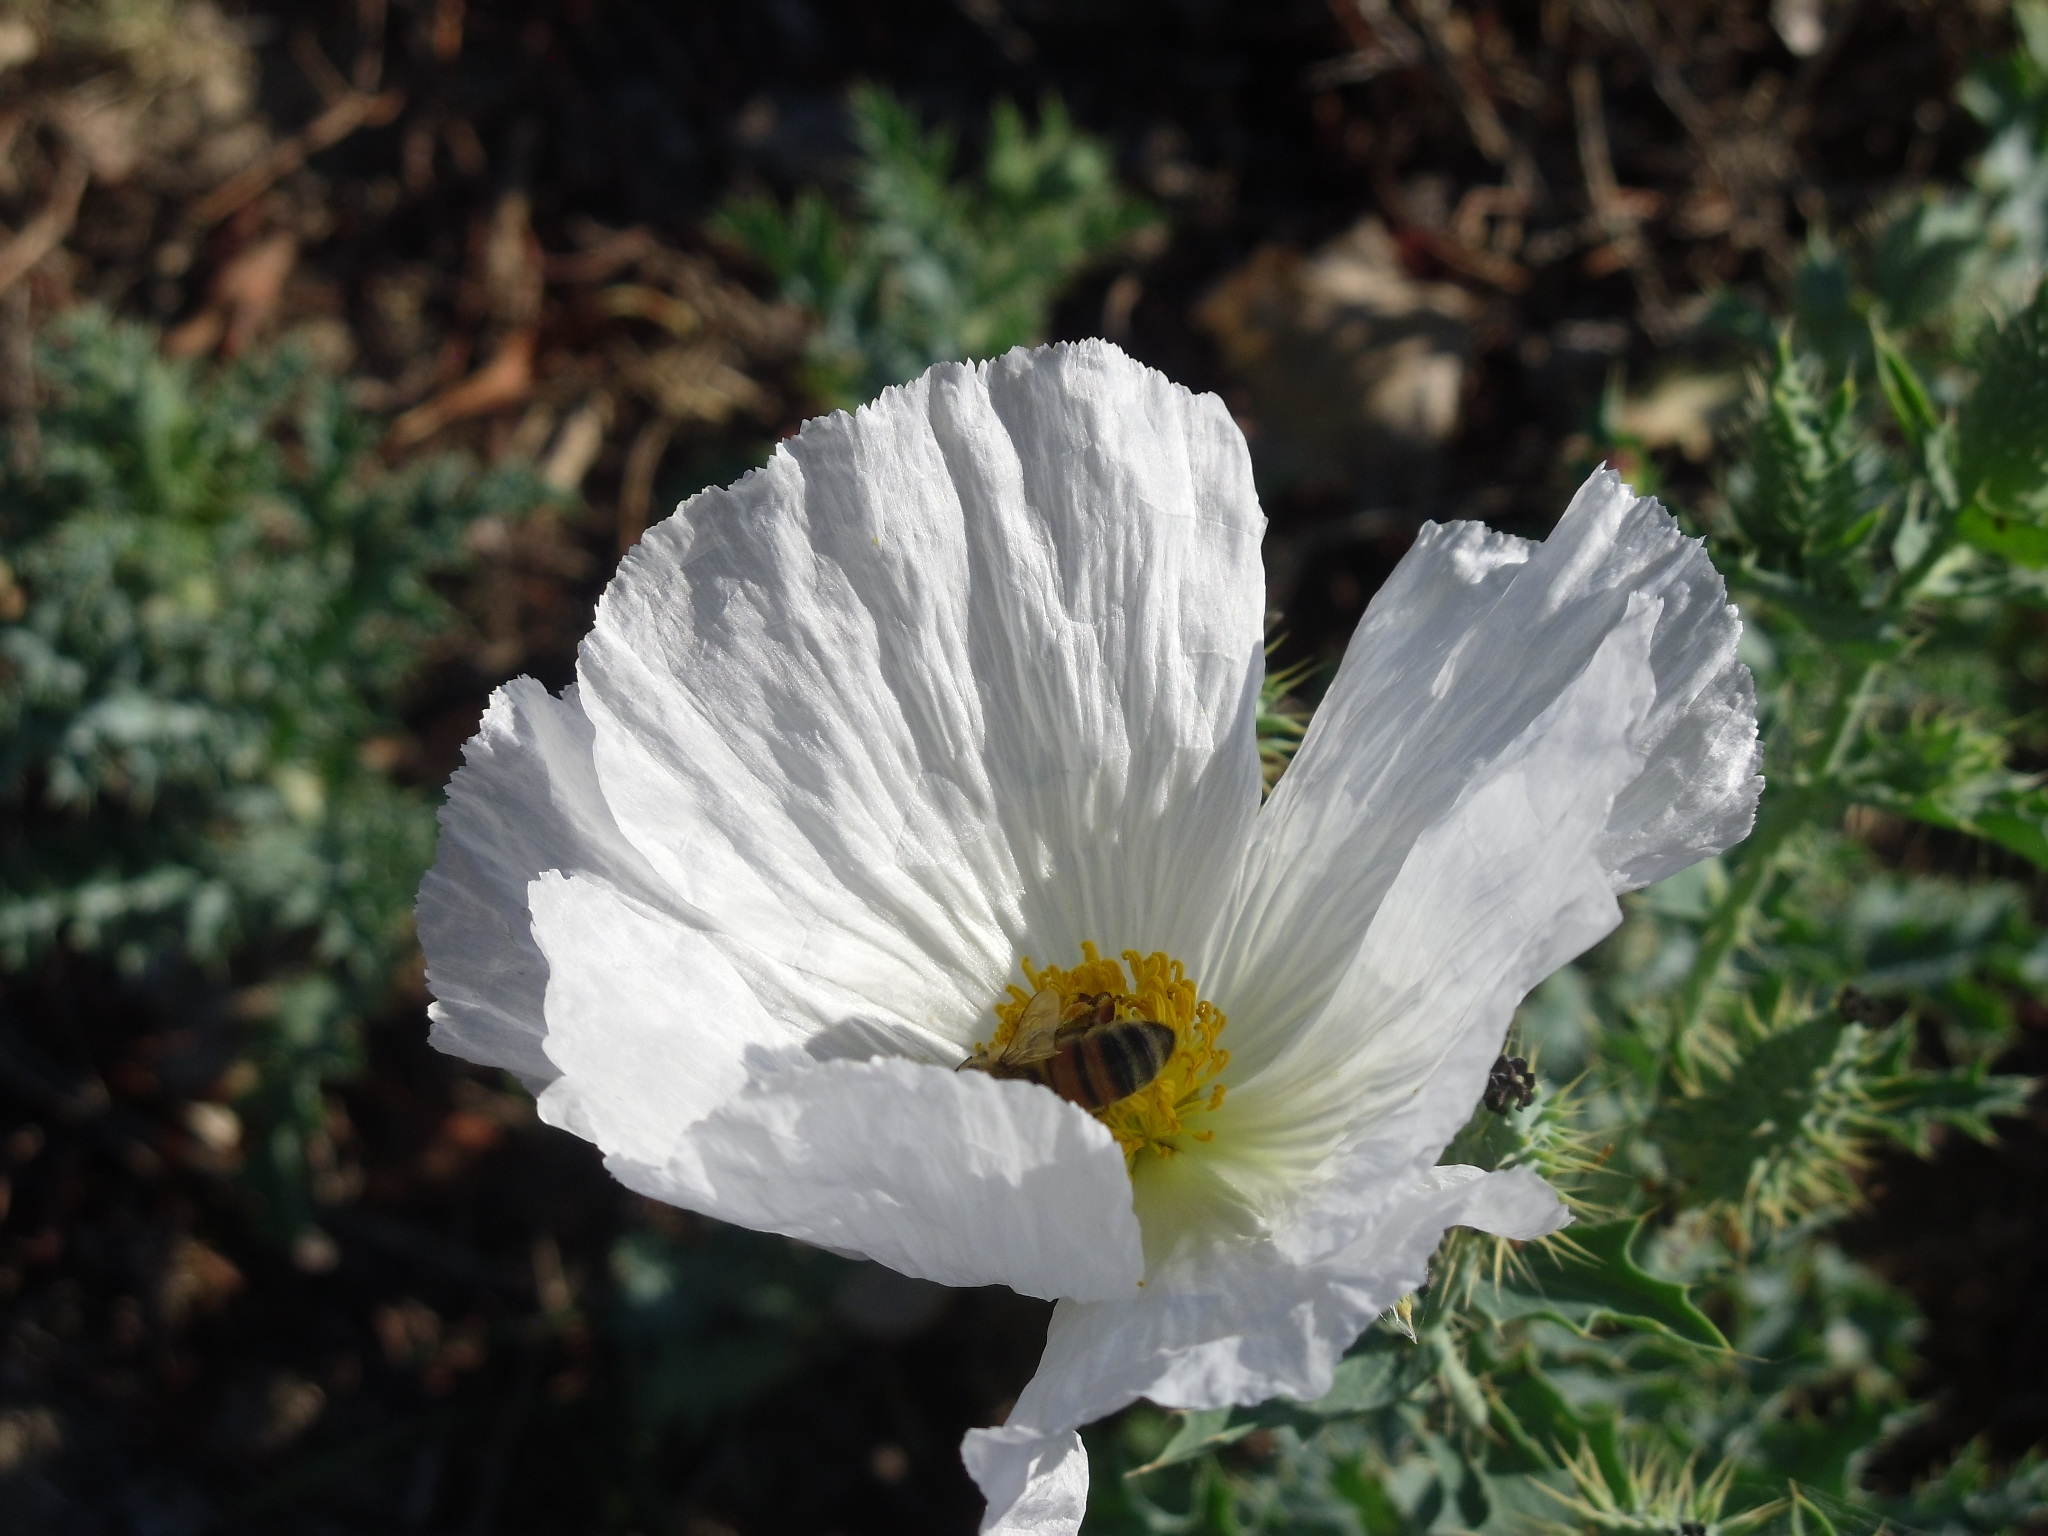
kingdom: Animalia
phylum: Arthropoda
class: Insecta
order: Hymenoptera
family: Apidae
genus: Apis
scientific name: Apis mellifera
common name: Honey bee
